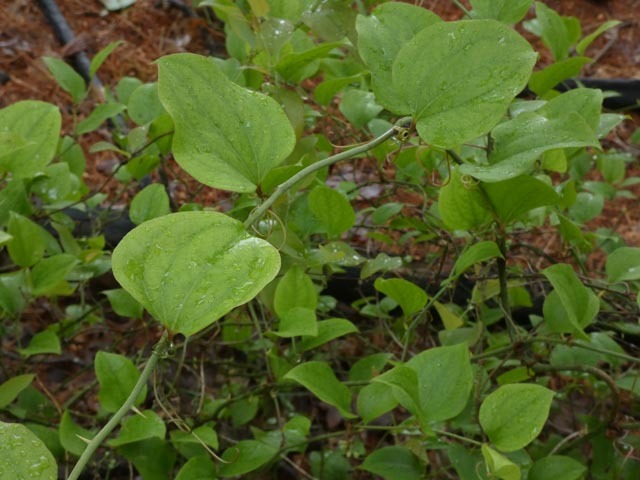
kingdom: Plantae
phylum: Tracheophyta
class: Liliopsida
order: Liliales
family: Smilacaceae
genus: Smilax
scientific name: Smilax rotundifolia
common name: Bullbriar
